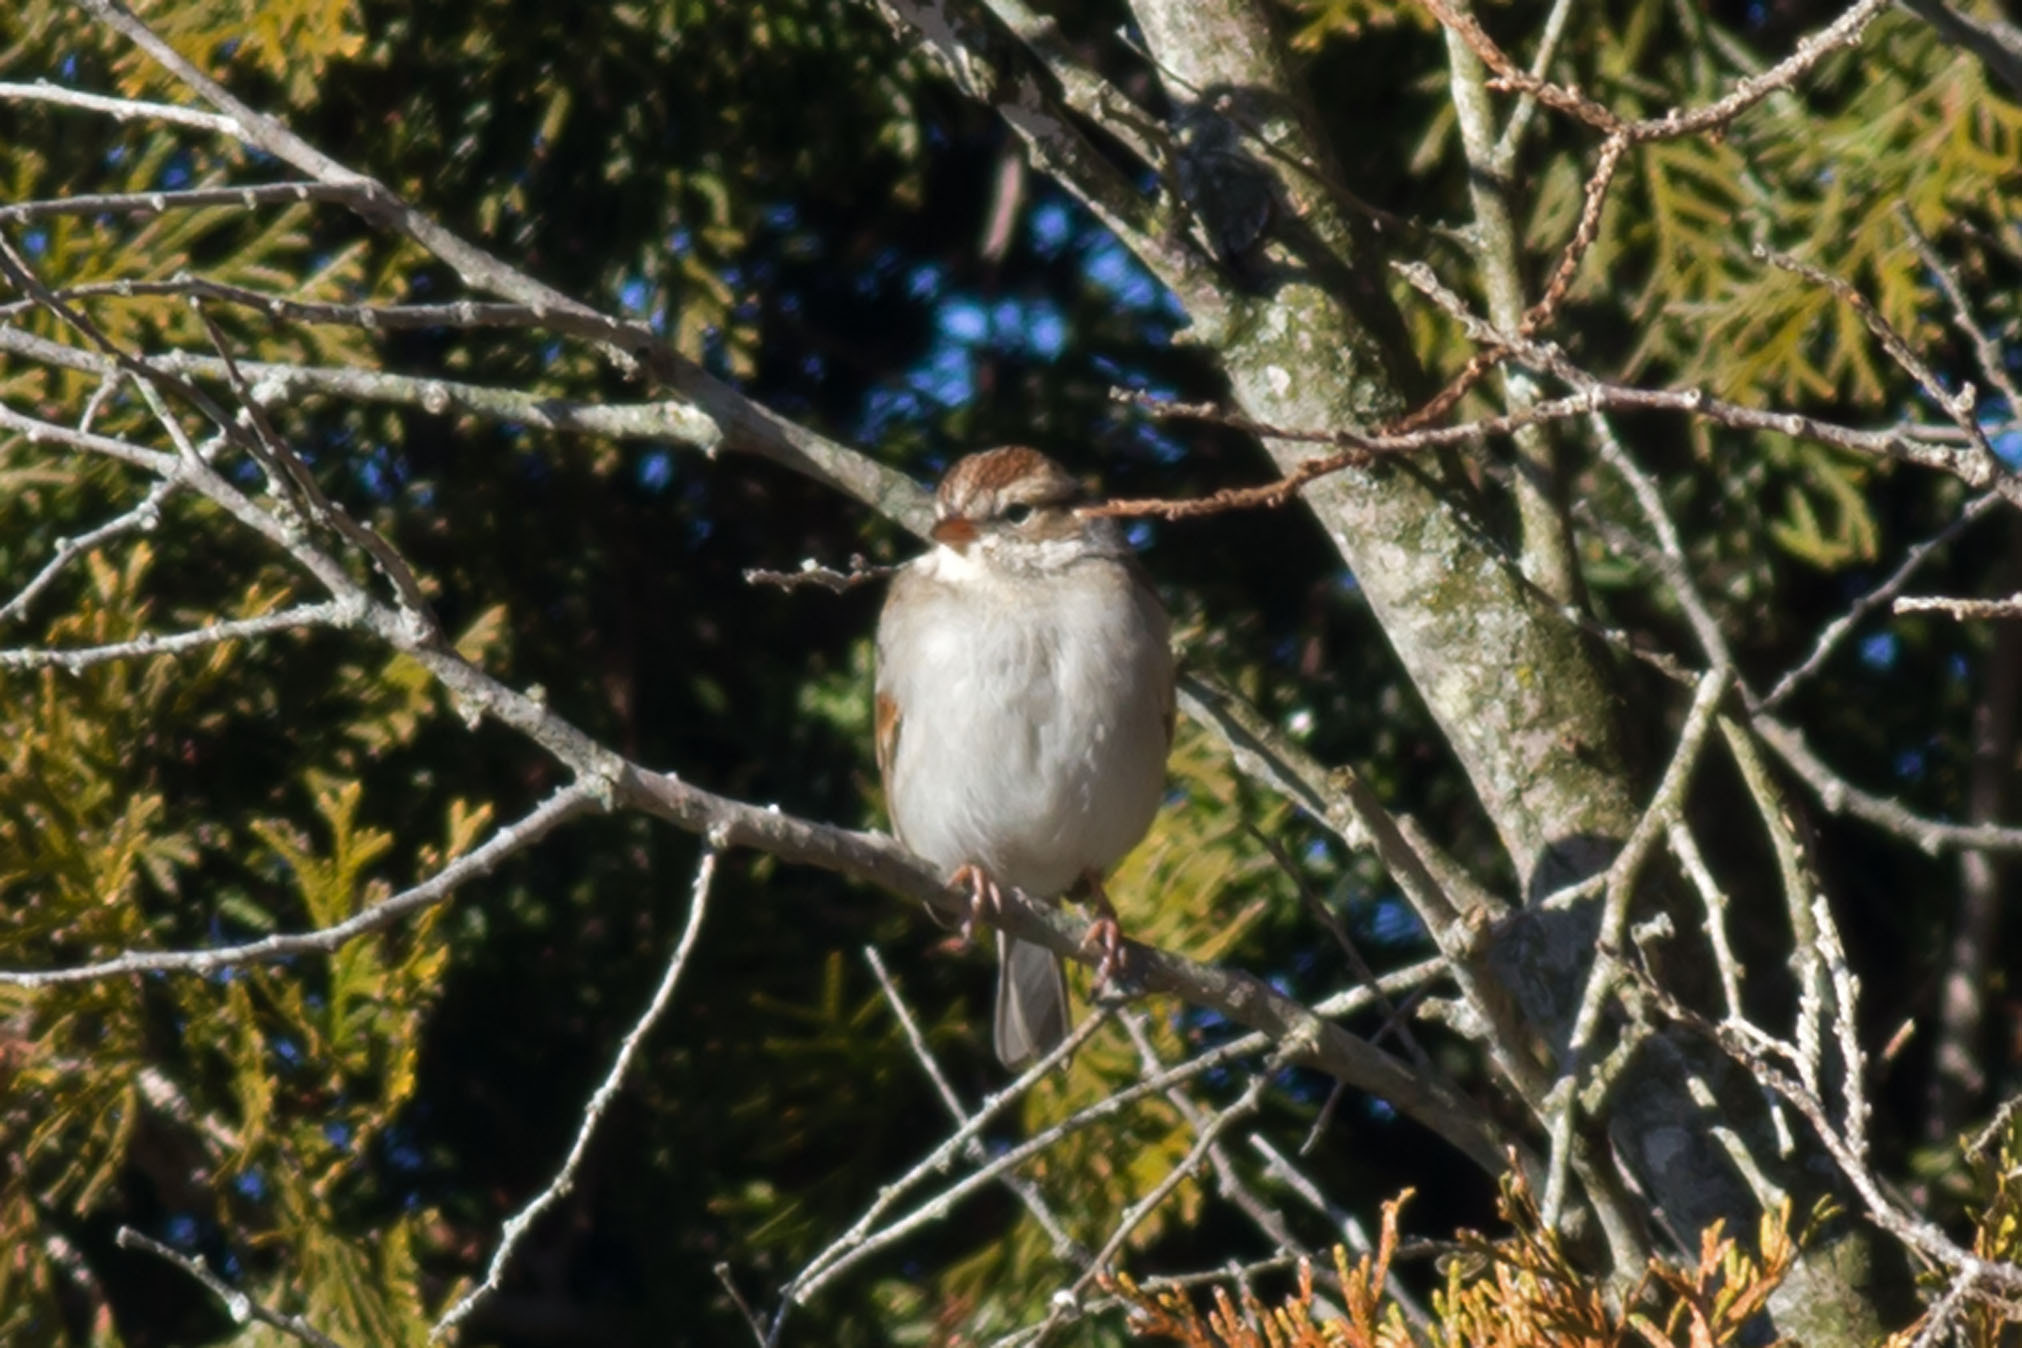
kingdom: Animalia
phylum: Chordata
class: Aves
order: Passeriformes
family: Passerellidae
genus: Spizella
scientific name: Spizella passerina
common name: Chipping sparrow
